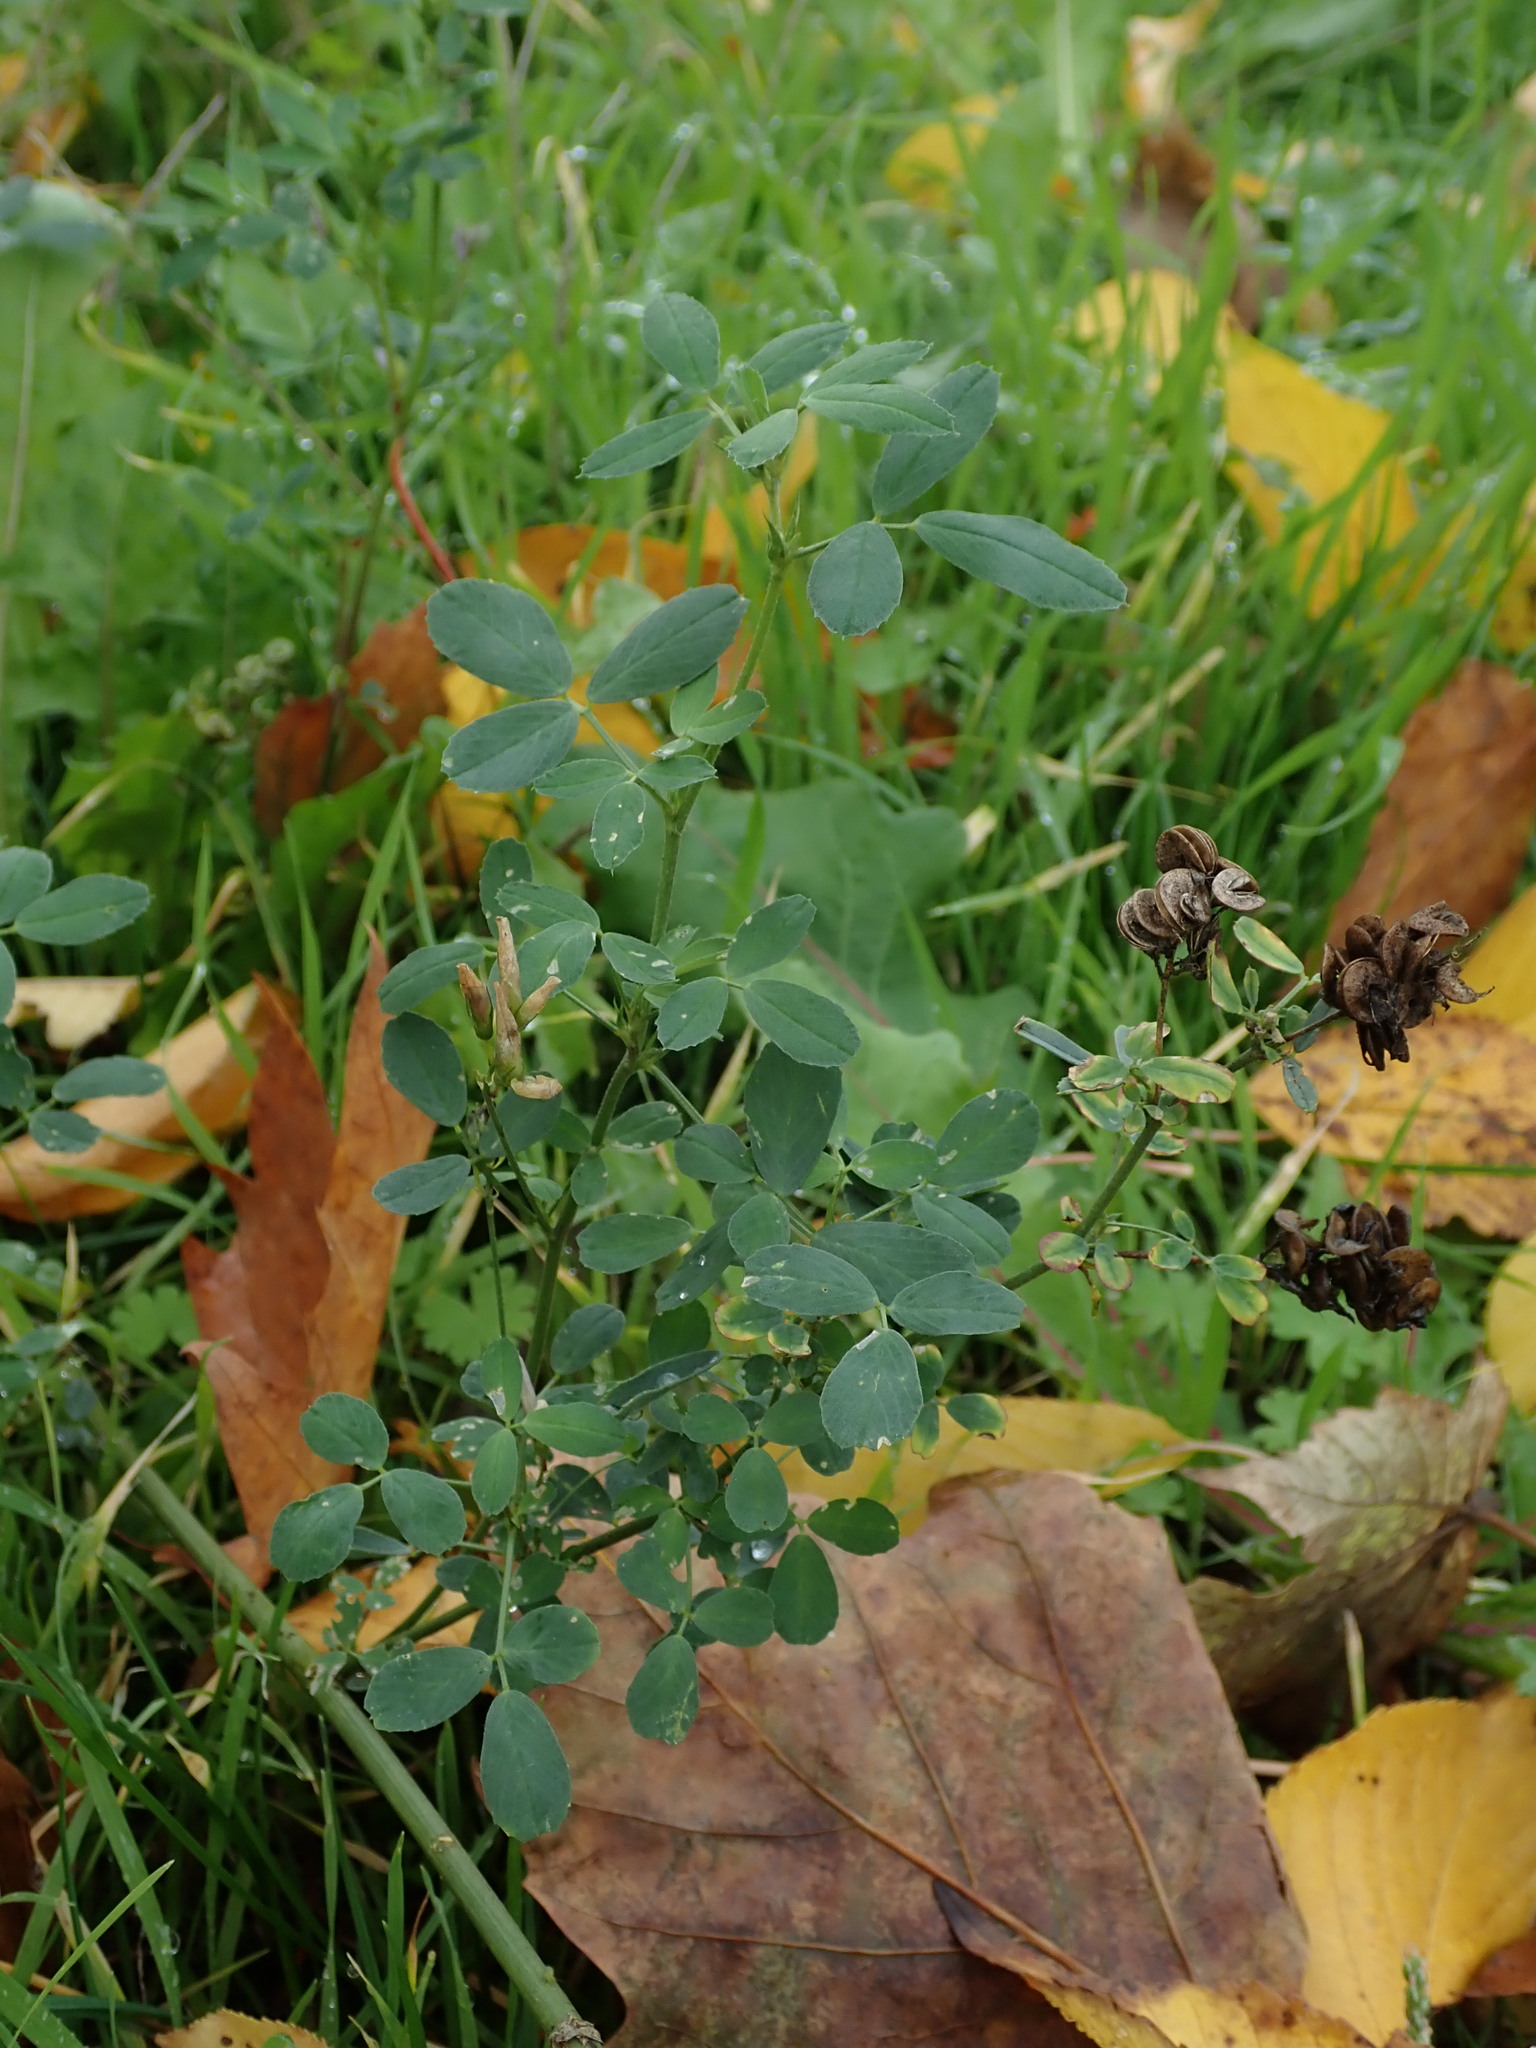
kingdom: Plantae
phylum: Tracheophyta
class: Magnoliopsida
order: Fabales
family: Fabaceae
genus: Medicago
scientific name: Medicago sativa
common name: Alfalfa
